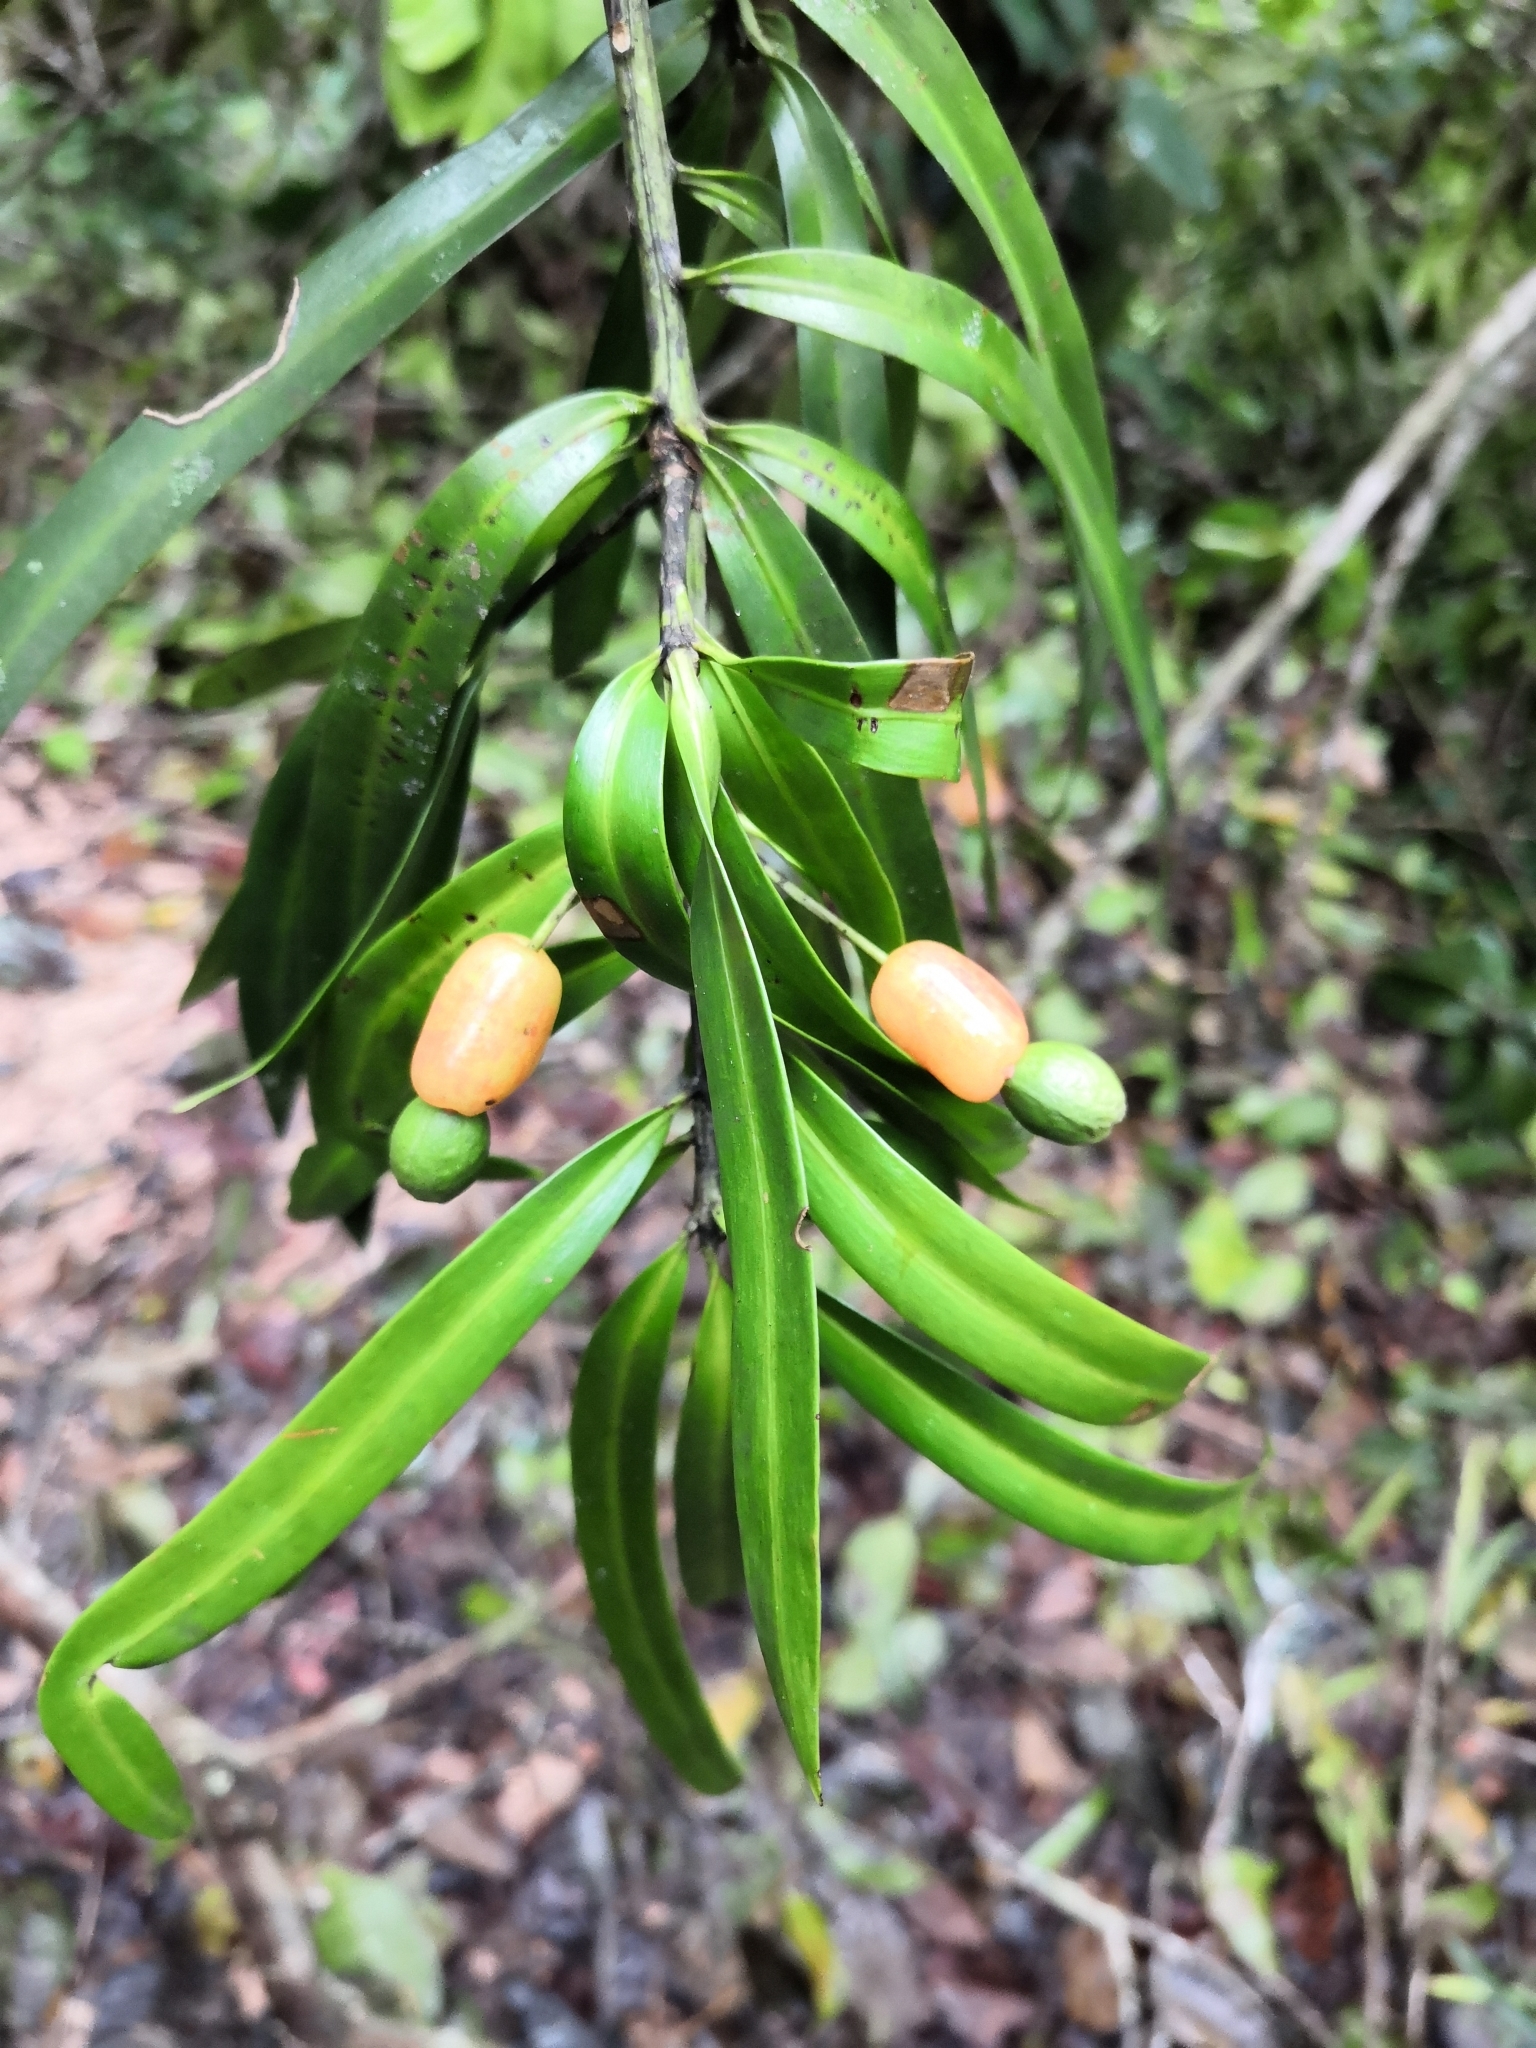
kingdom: Plantae
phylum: Tracheophyta
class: Pinopsida
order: Pinales
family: Podocarpaceae
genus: Podocarpus
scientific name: Podocarpus matudae
